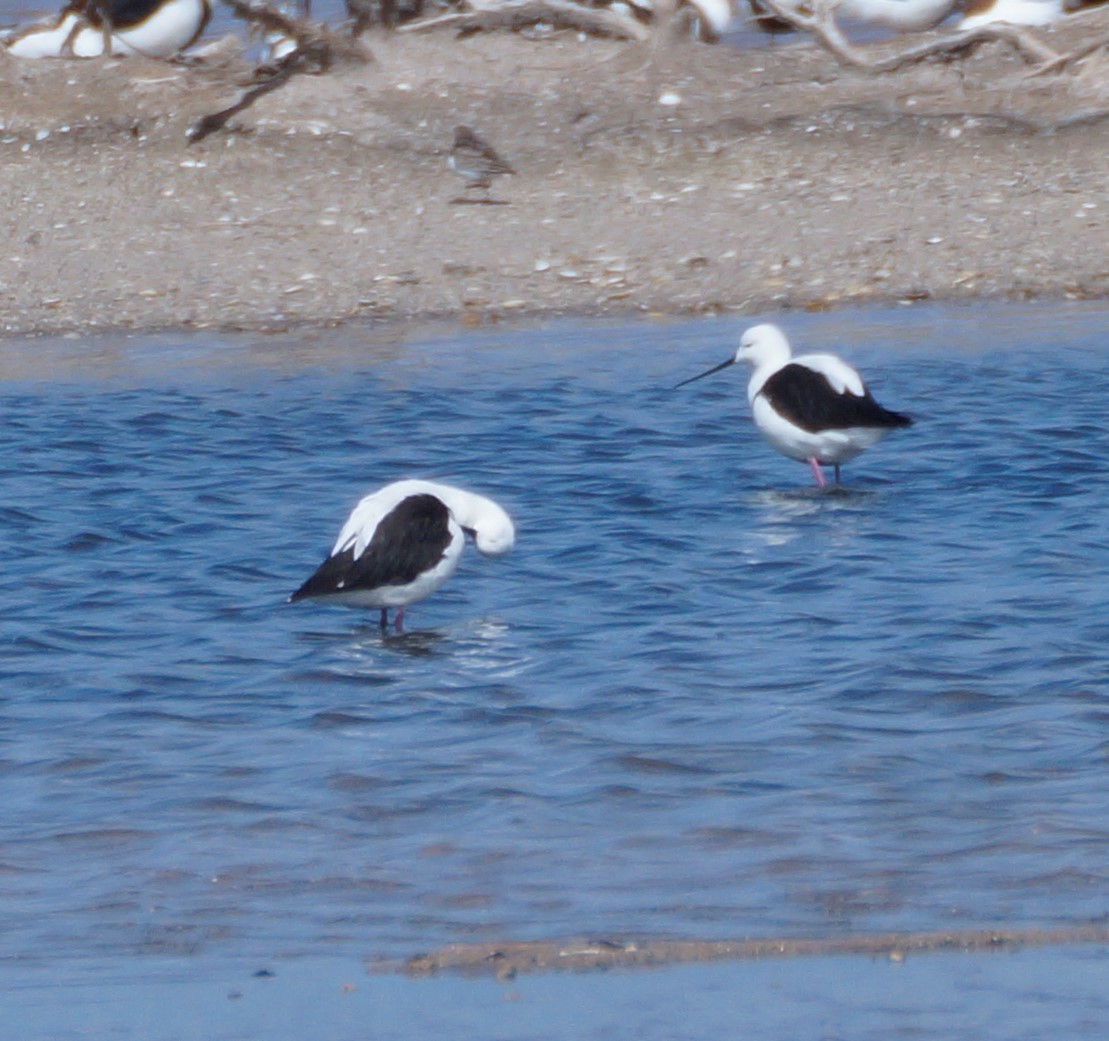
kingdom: Animalia
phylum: Chordata
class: Aves
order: Charadriiformes
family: Recurvirostridae
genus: Cladorhynchus
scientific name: Cladorhynchus leucocephalus
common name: Banded stilt
